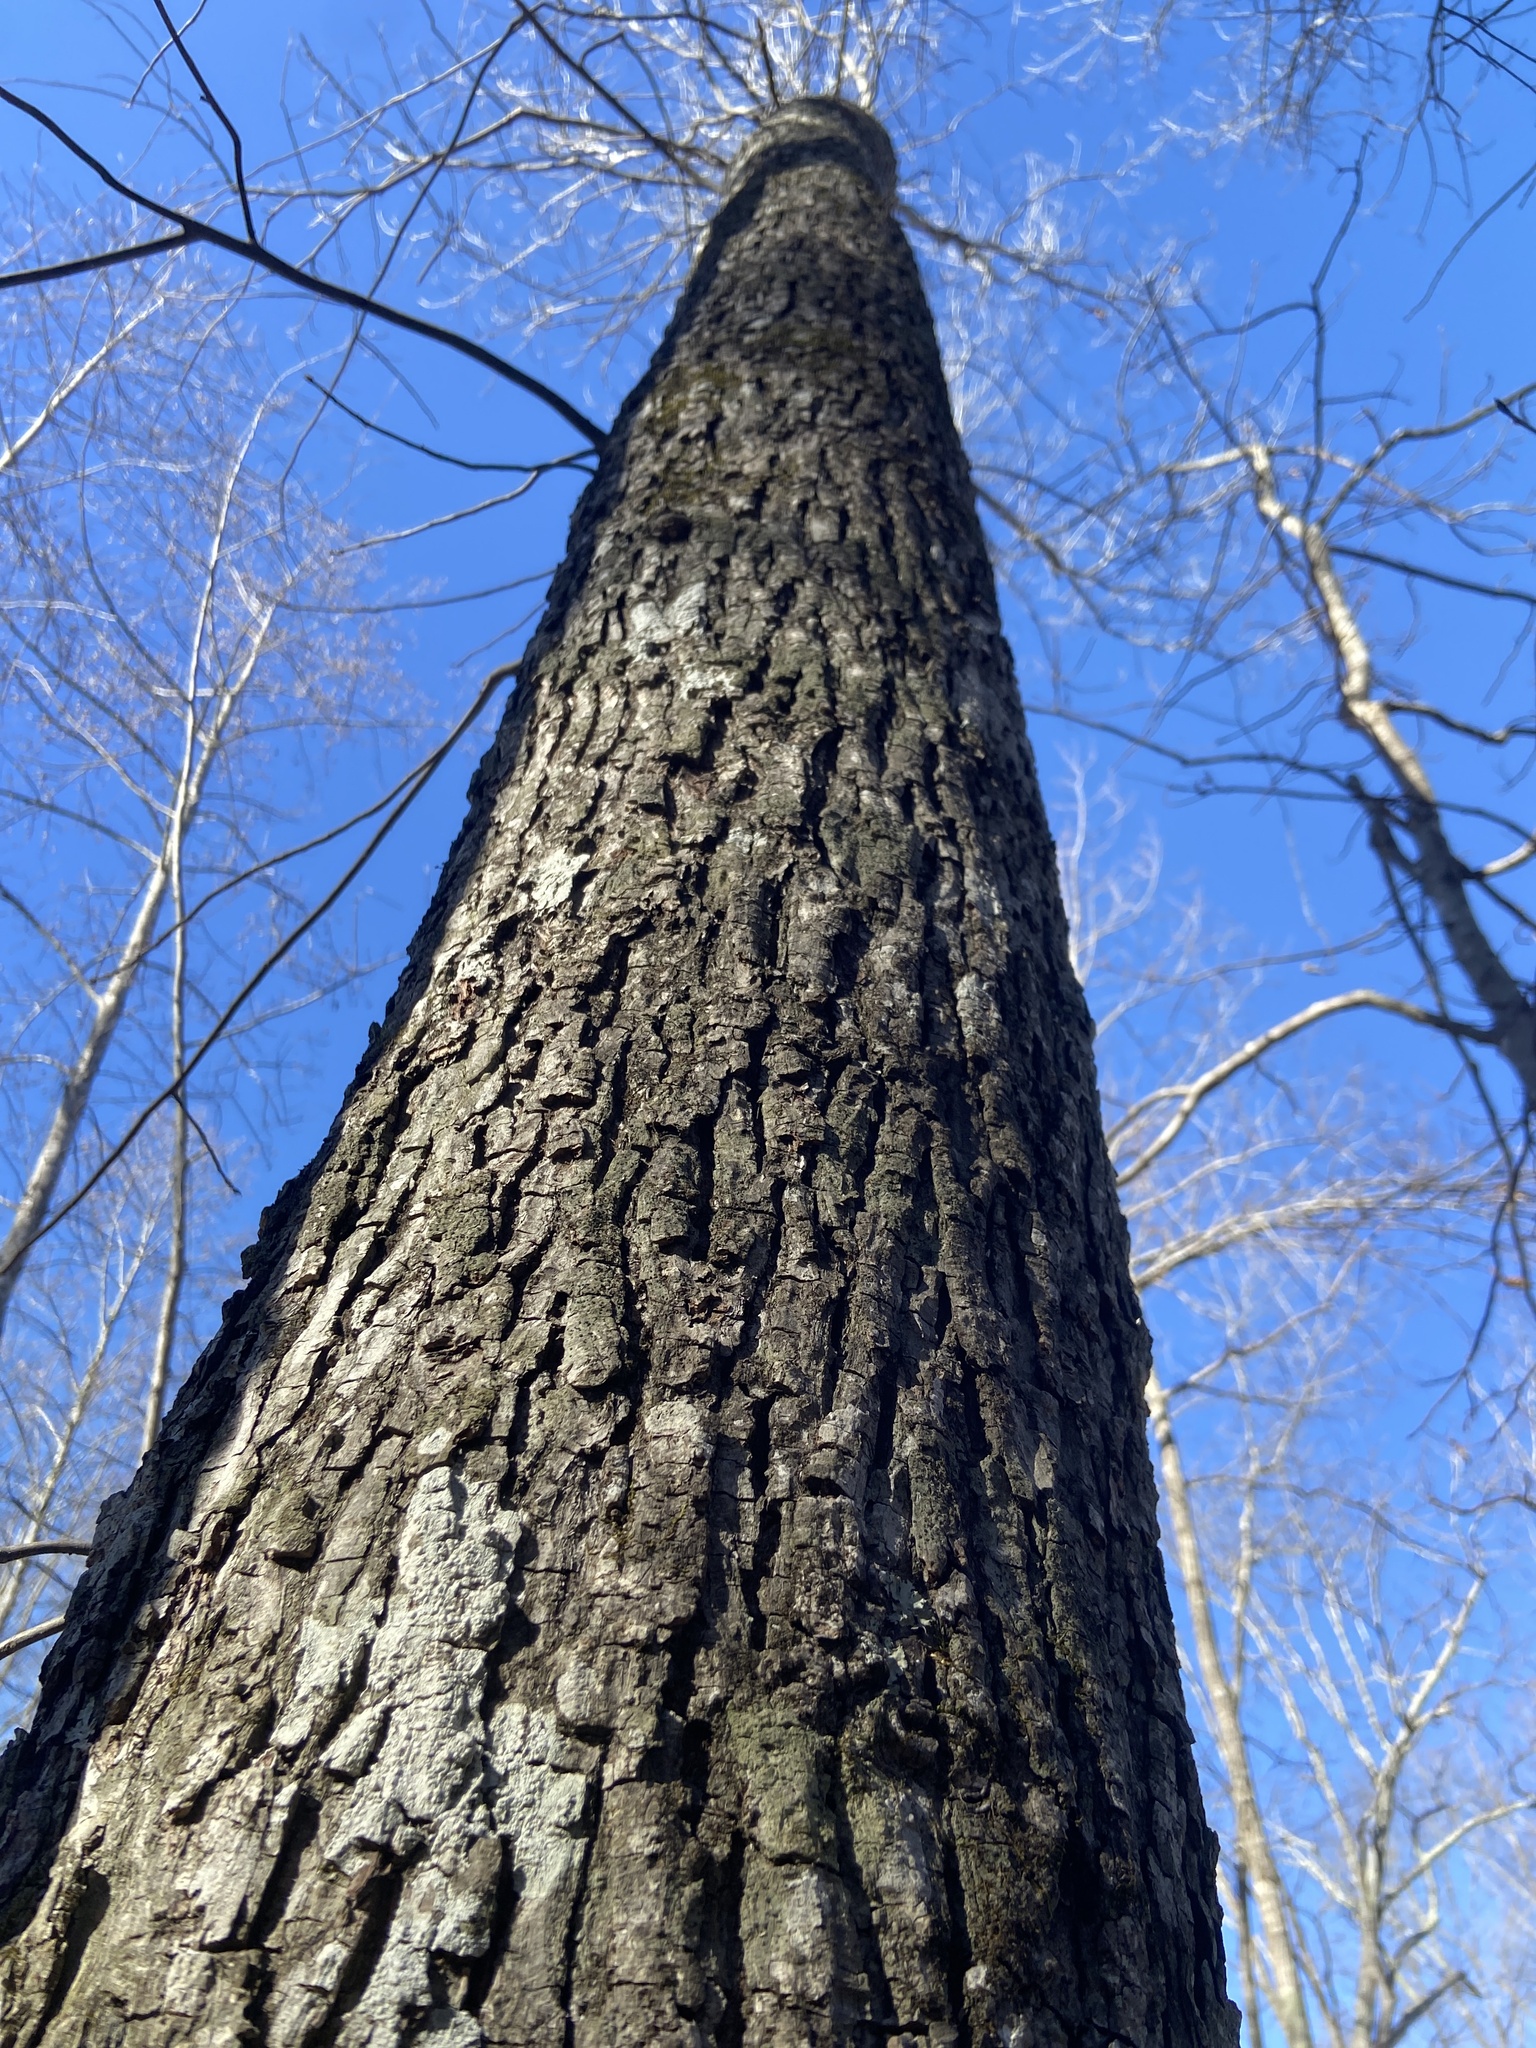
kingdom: Plantae
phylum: Tracheophyta
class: Magnoliopsida
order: Fagales
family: Juglandaceae
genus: Carya
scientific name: Carya glabra
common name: Pignut hickory
